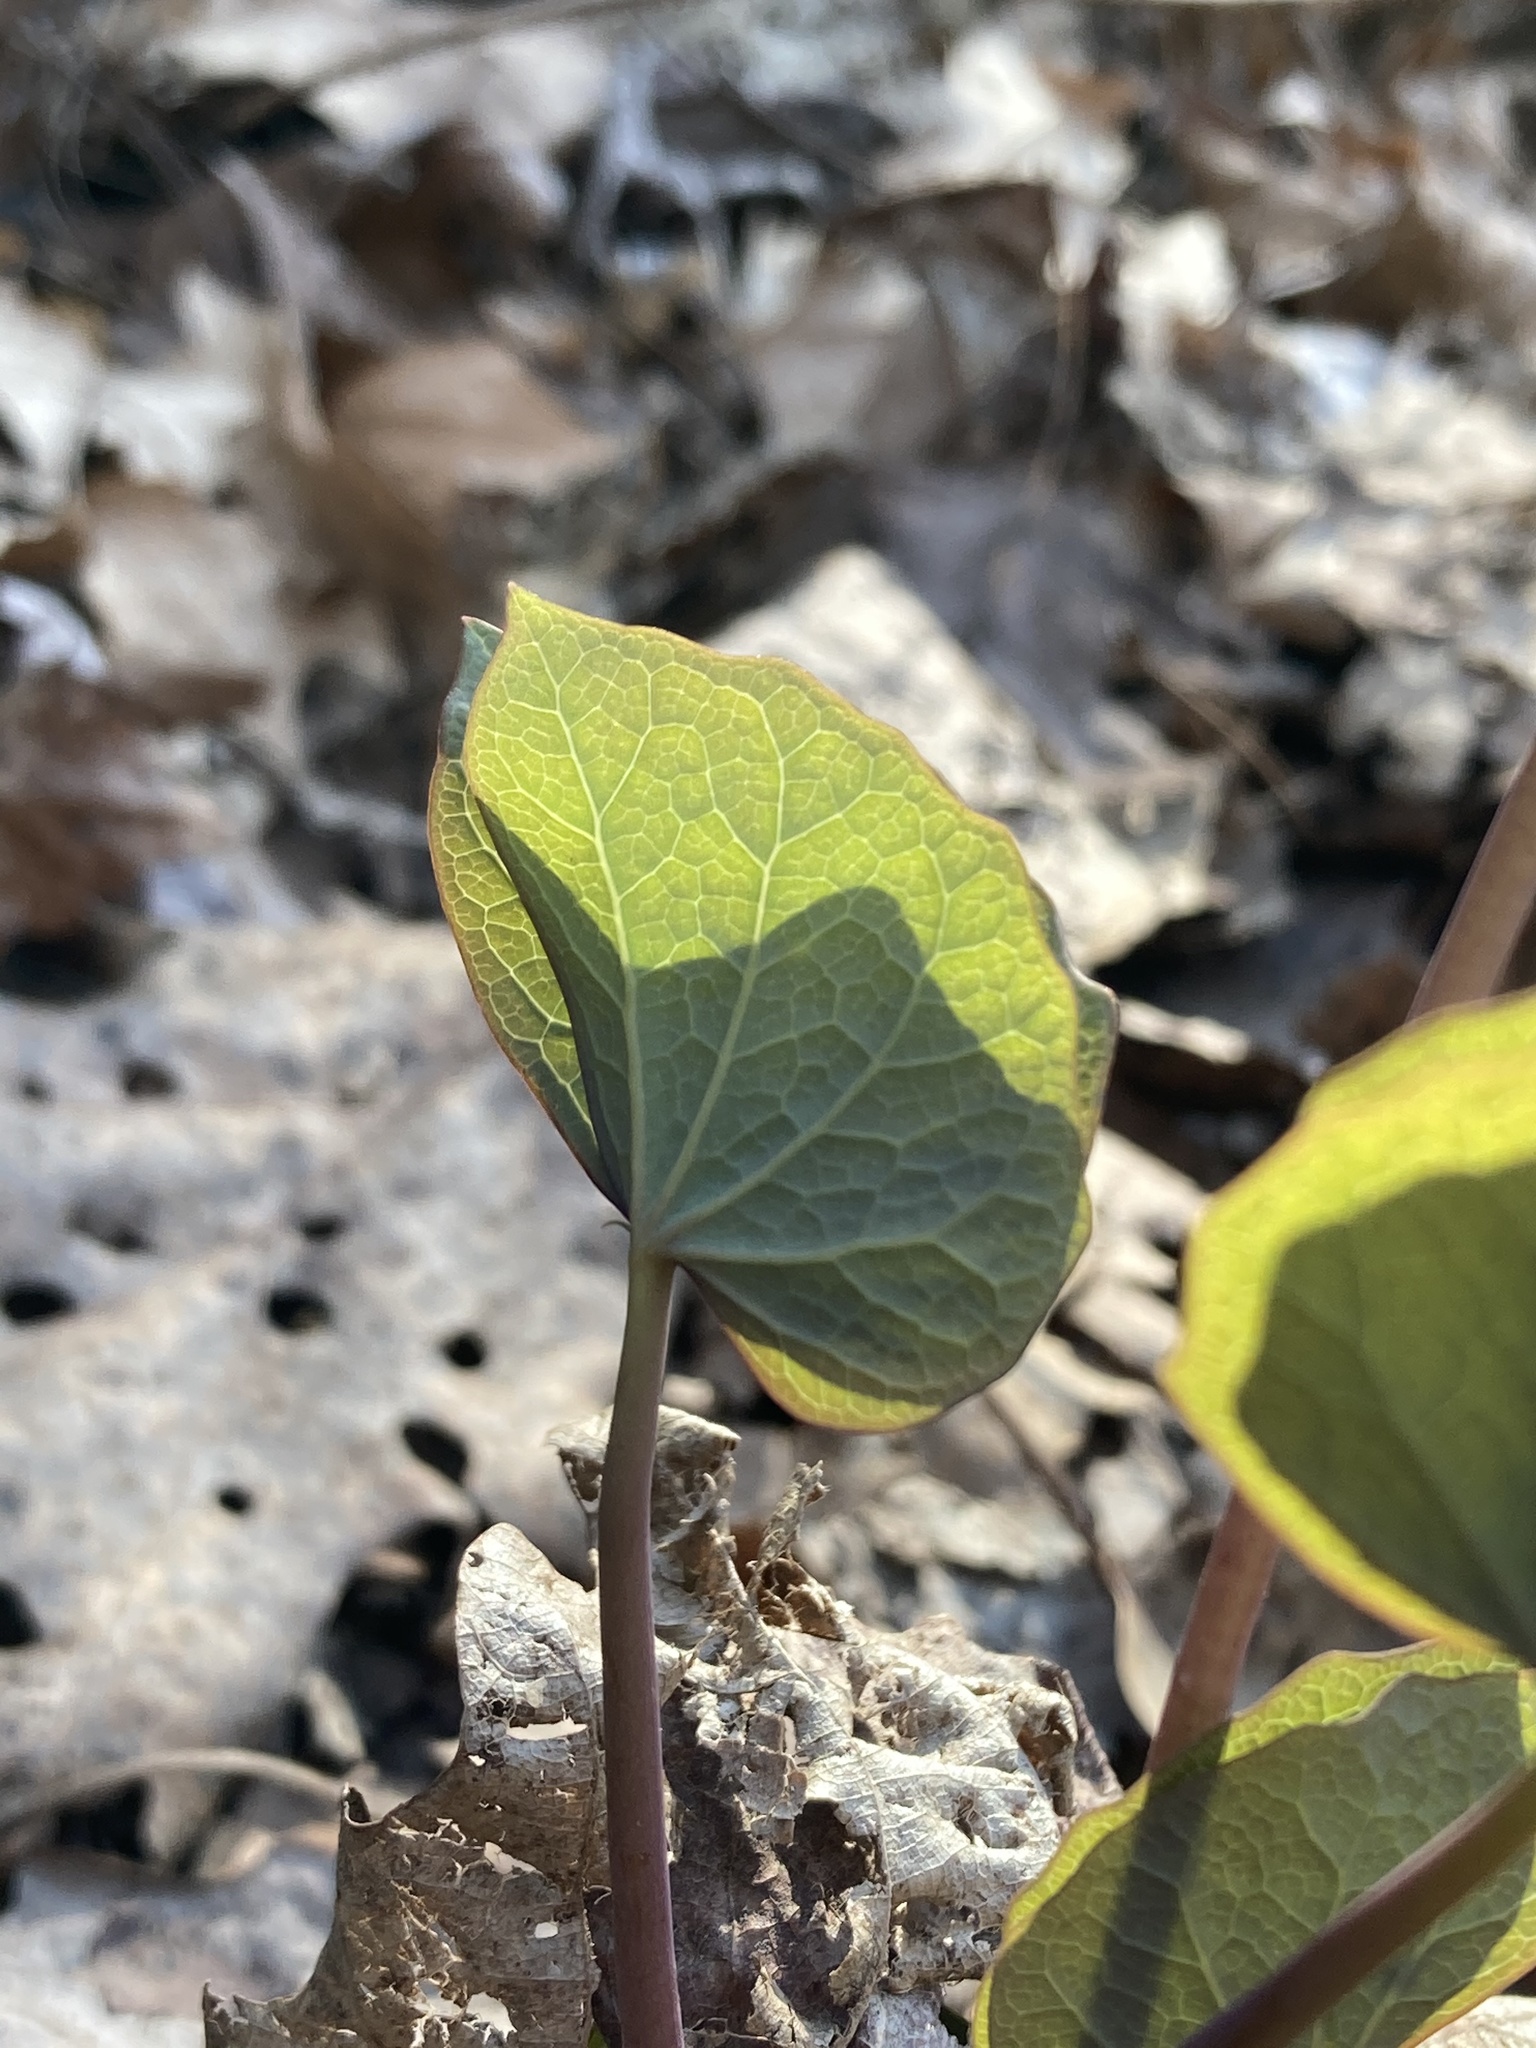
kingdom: Plantae
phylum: Tracheophyta
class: Magnoliopsida
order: Ranunculales
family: Berberidaceae
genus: Jeffersonia
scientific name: Jeffersonia diphylla
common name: Rheumatism-root
